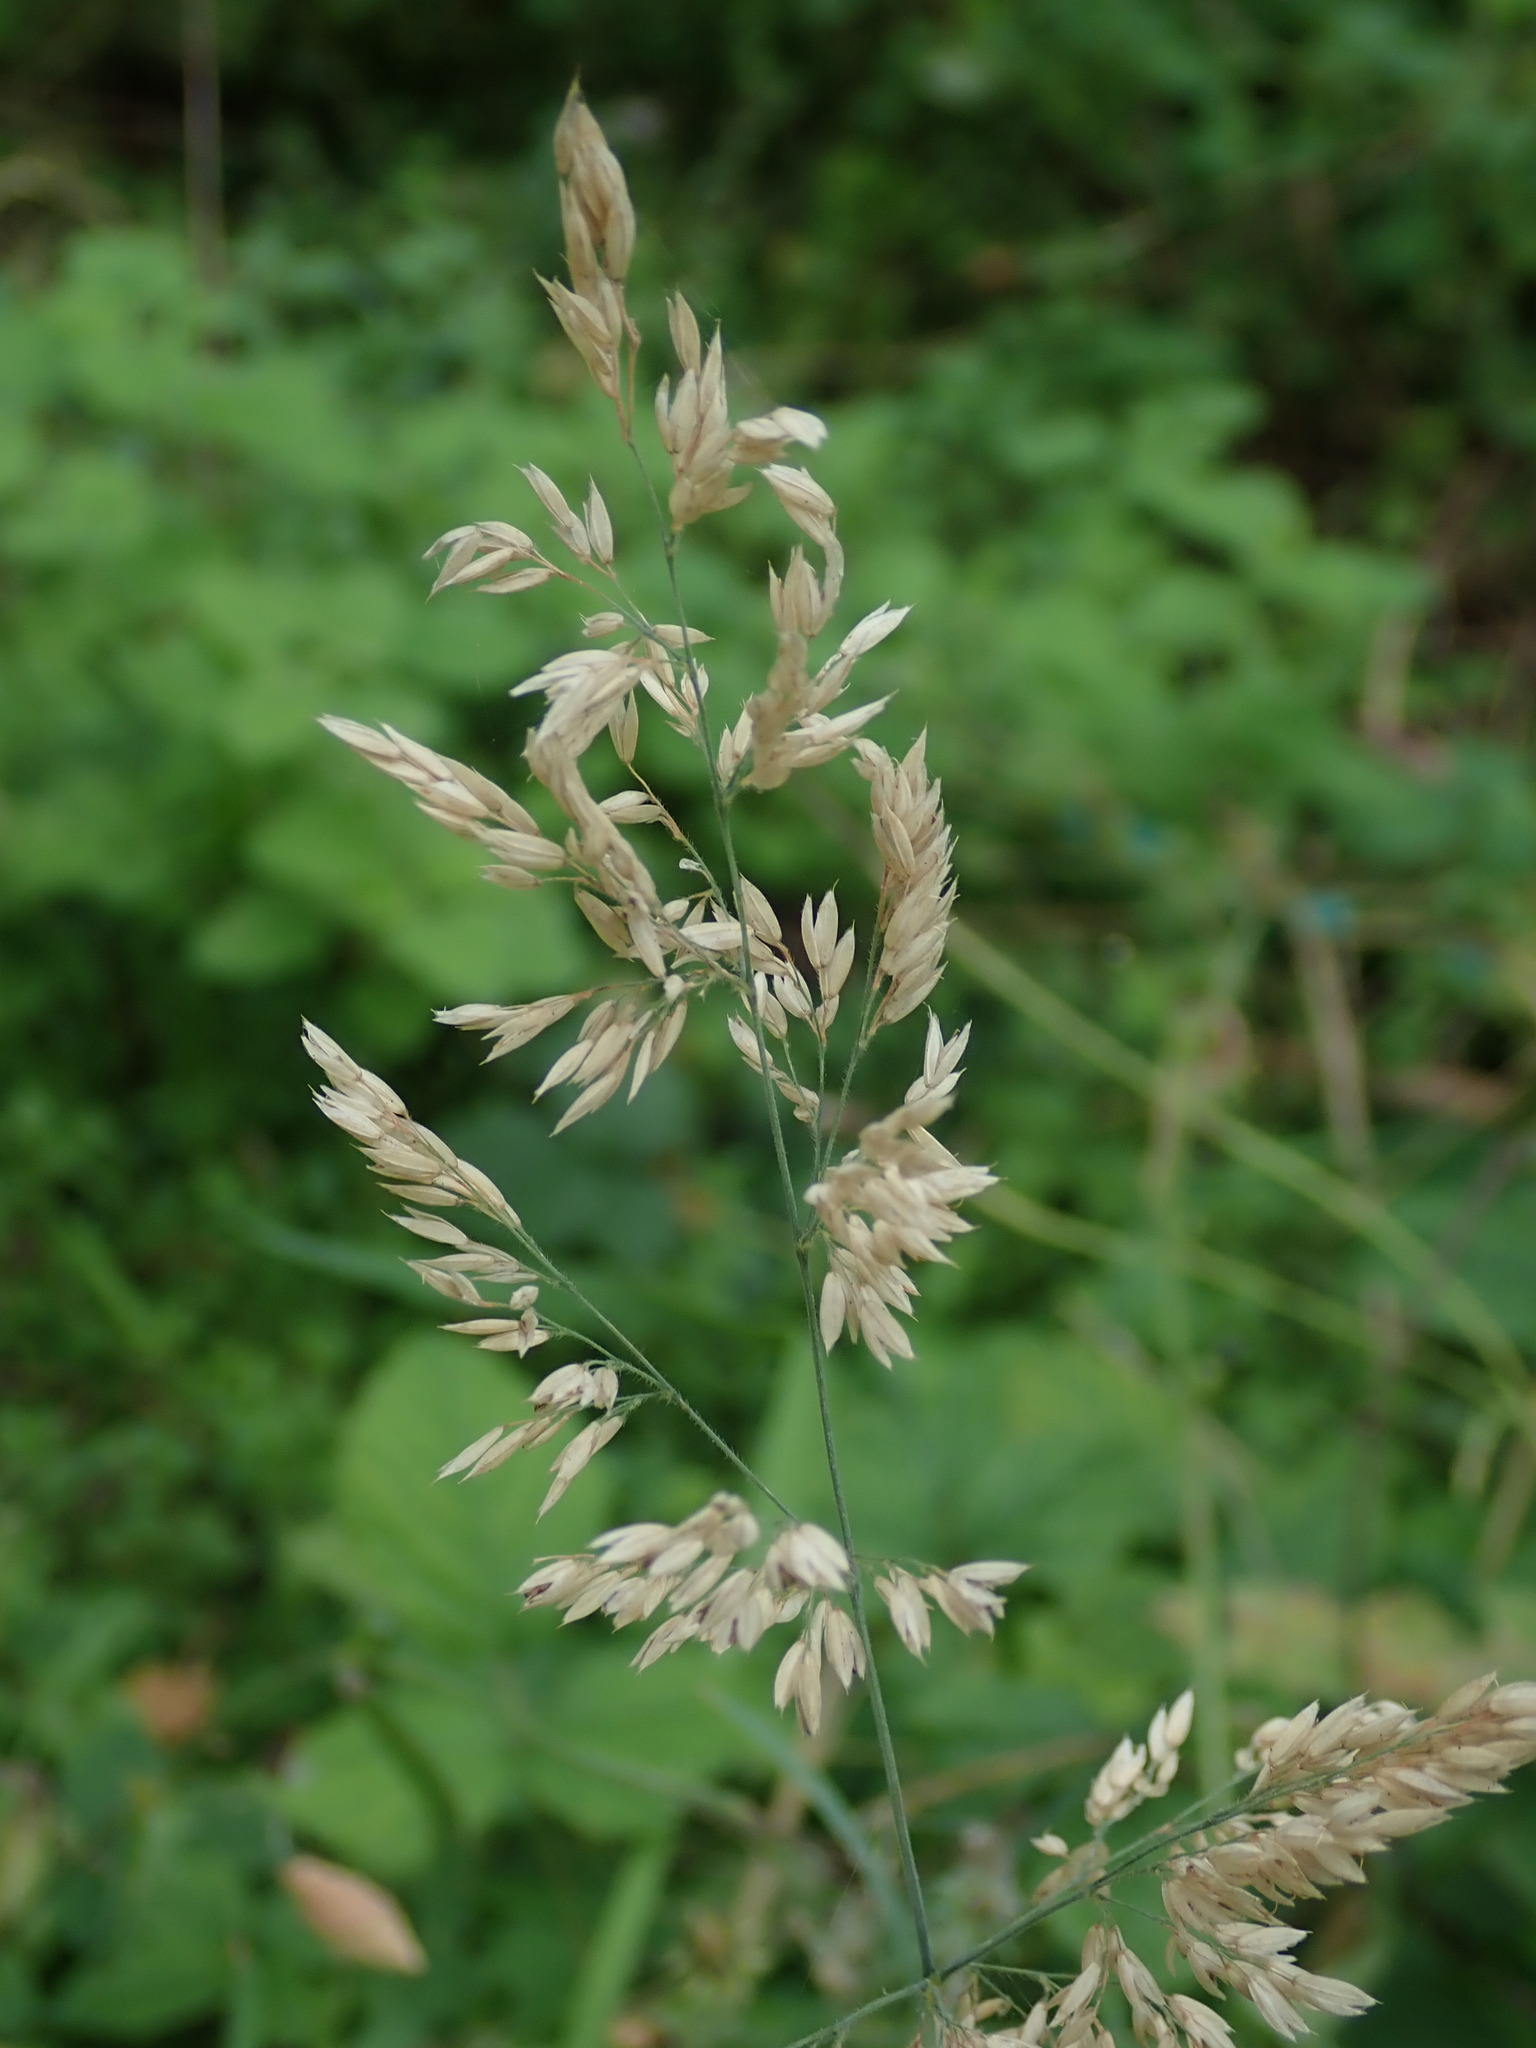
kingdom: Plantae
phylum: Tracheophyta
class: Liliopsida
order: Poales
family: Poaceae
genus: Holcus
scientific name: Holcus lanatus
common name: Yorkshire-fog
